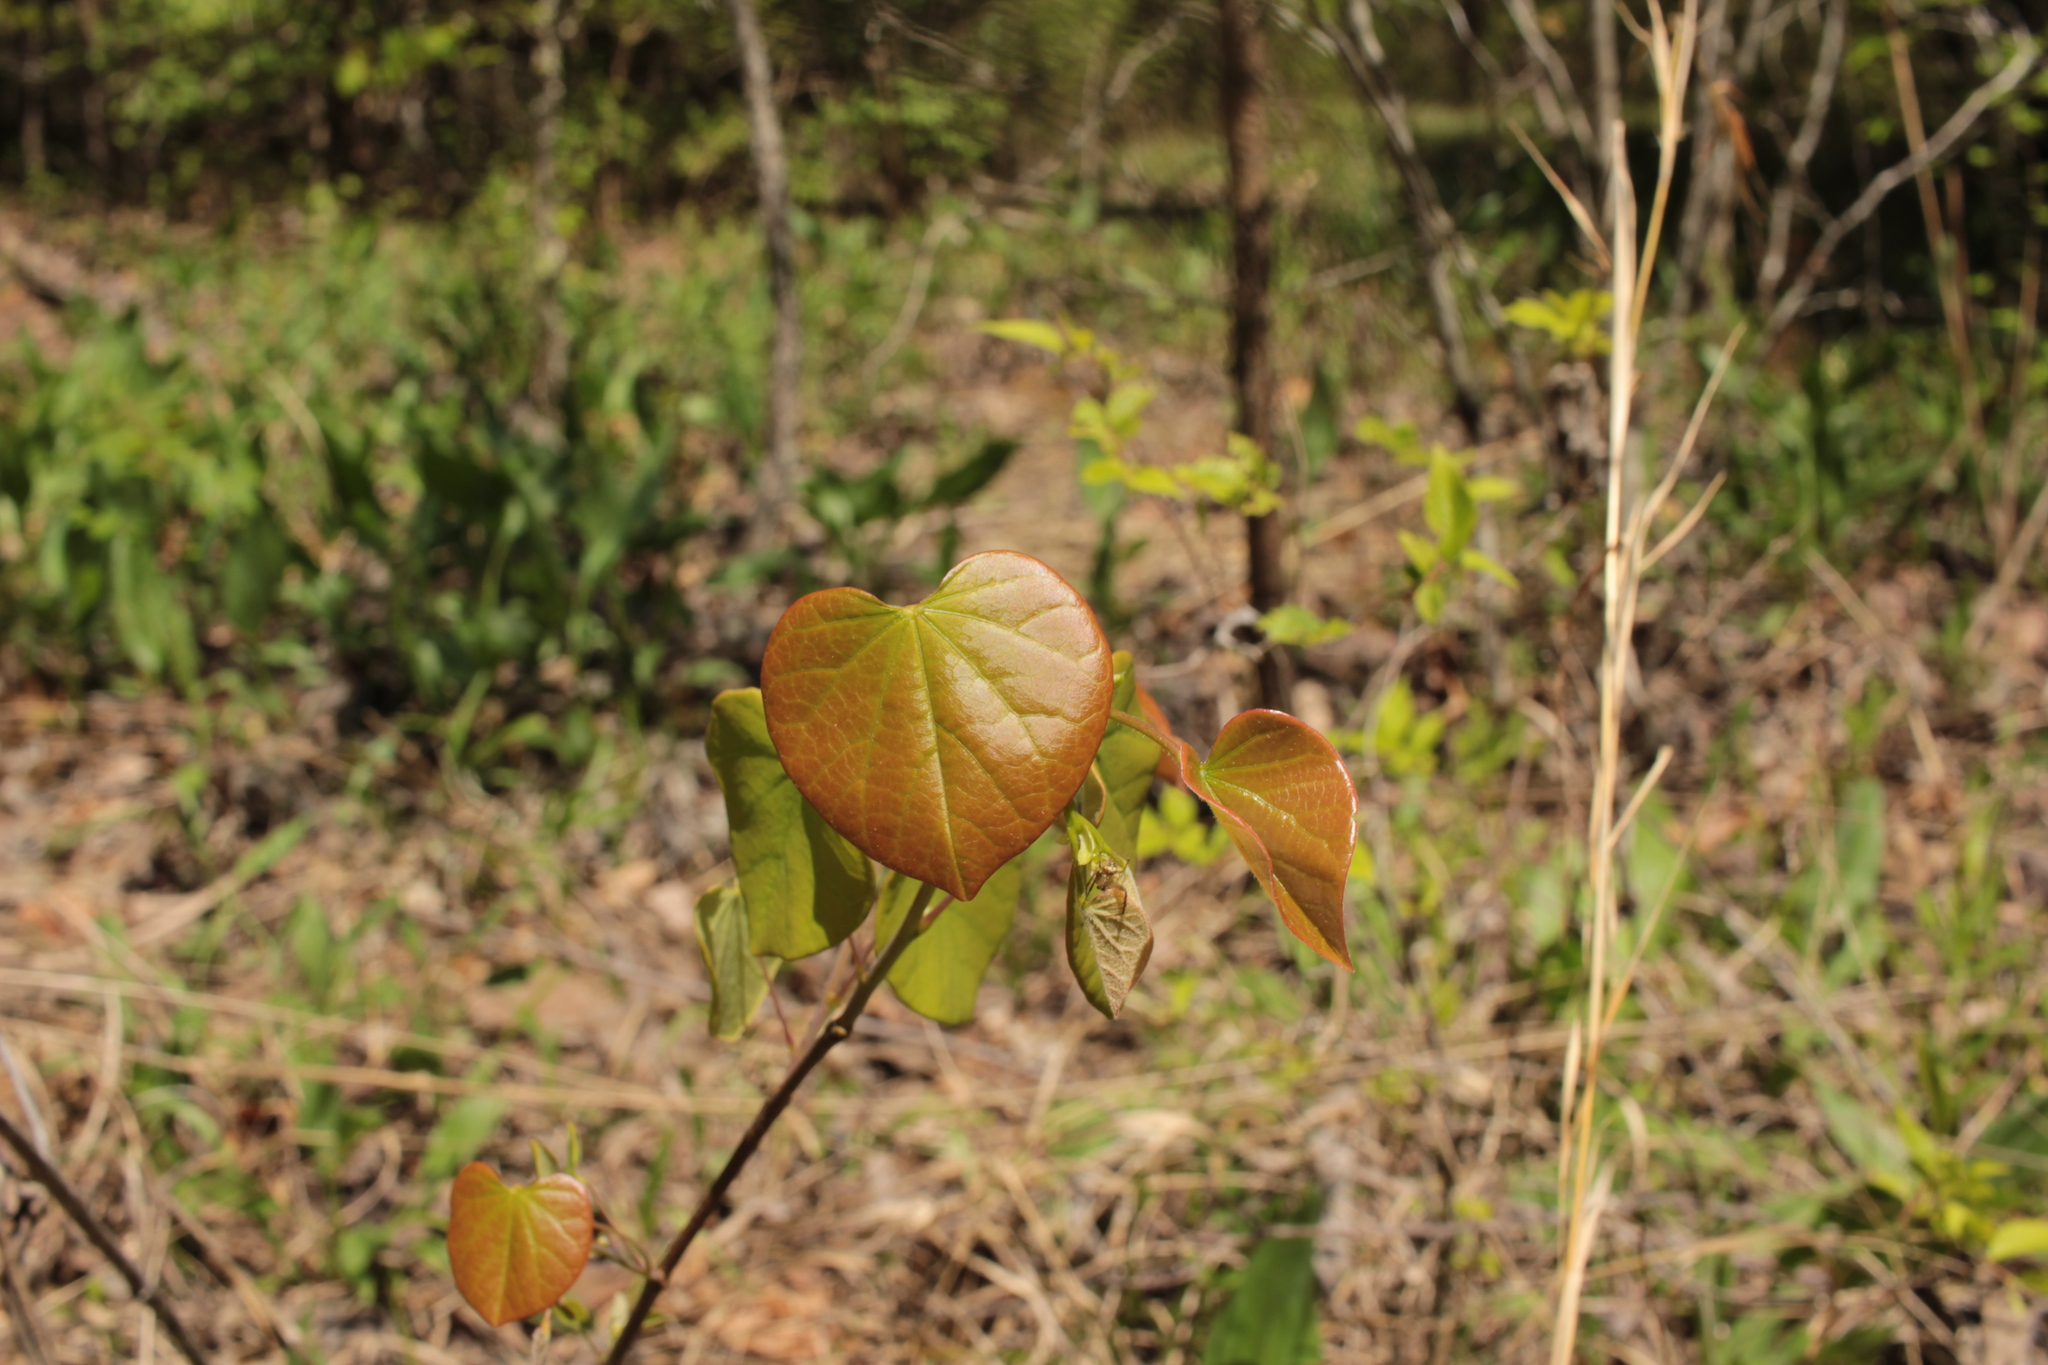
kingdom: Plantae
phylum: Tracheophyta
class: Magnoliopsida
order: Fabales
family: Fabaceae
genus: Cercis
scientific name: Cercis canadensis
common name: Eastern redbud
